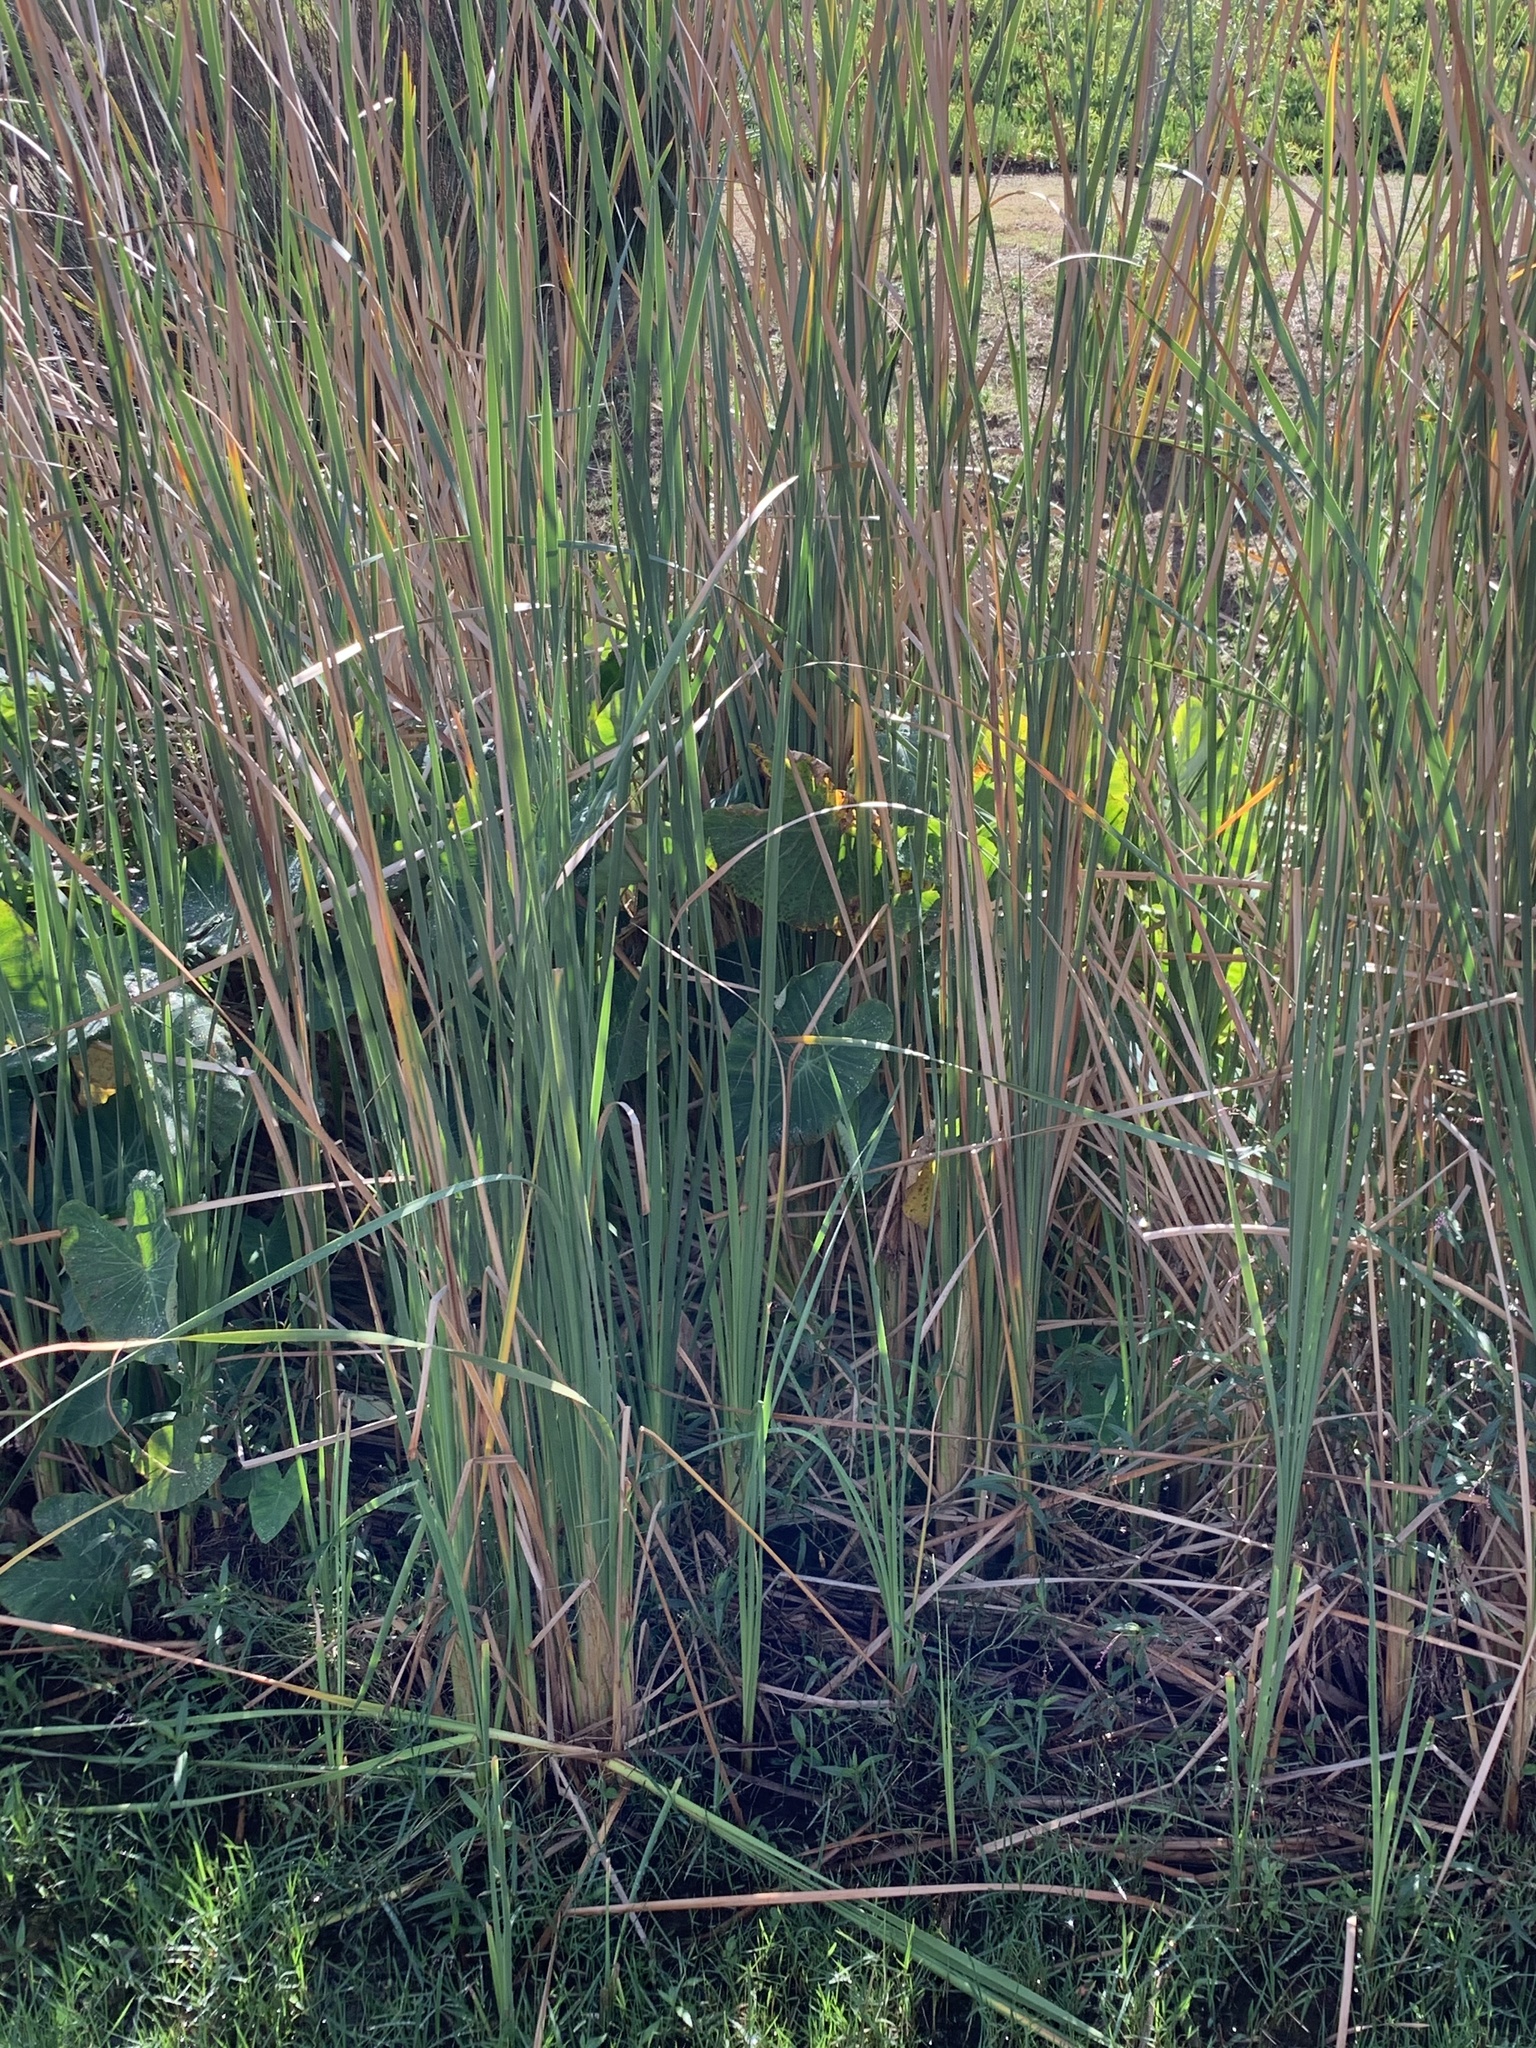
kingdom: Plantae
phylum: Tracheophyta
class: Liliopsida
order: Poales
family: Typhaceae
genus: Typha
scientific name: Typha capensis
